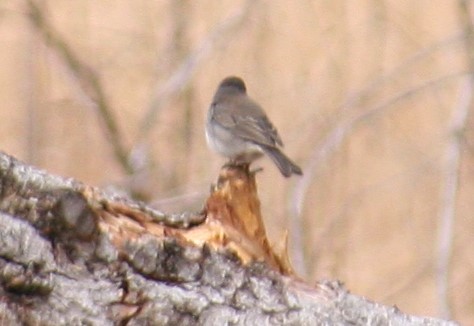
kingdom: Animalia
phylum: Chordata
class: Aves
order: Passeriformes
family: Passerellidae
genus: Junco
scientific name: Junco hyemalis
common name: Dark-eyed junco
